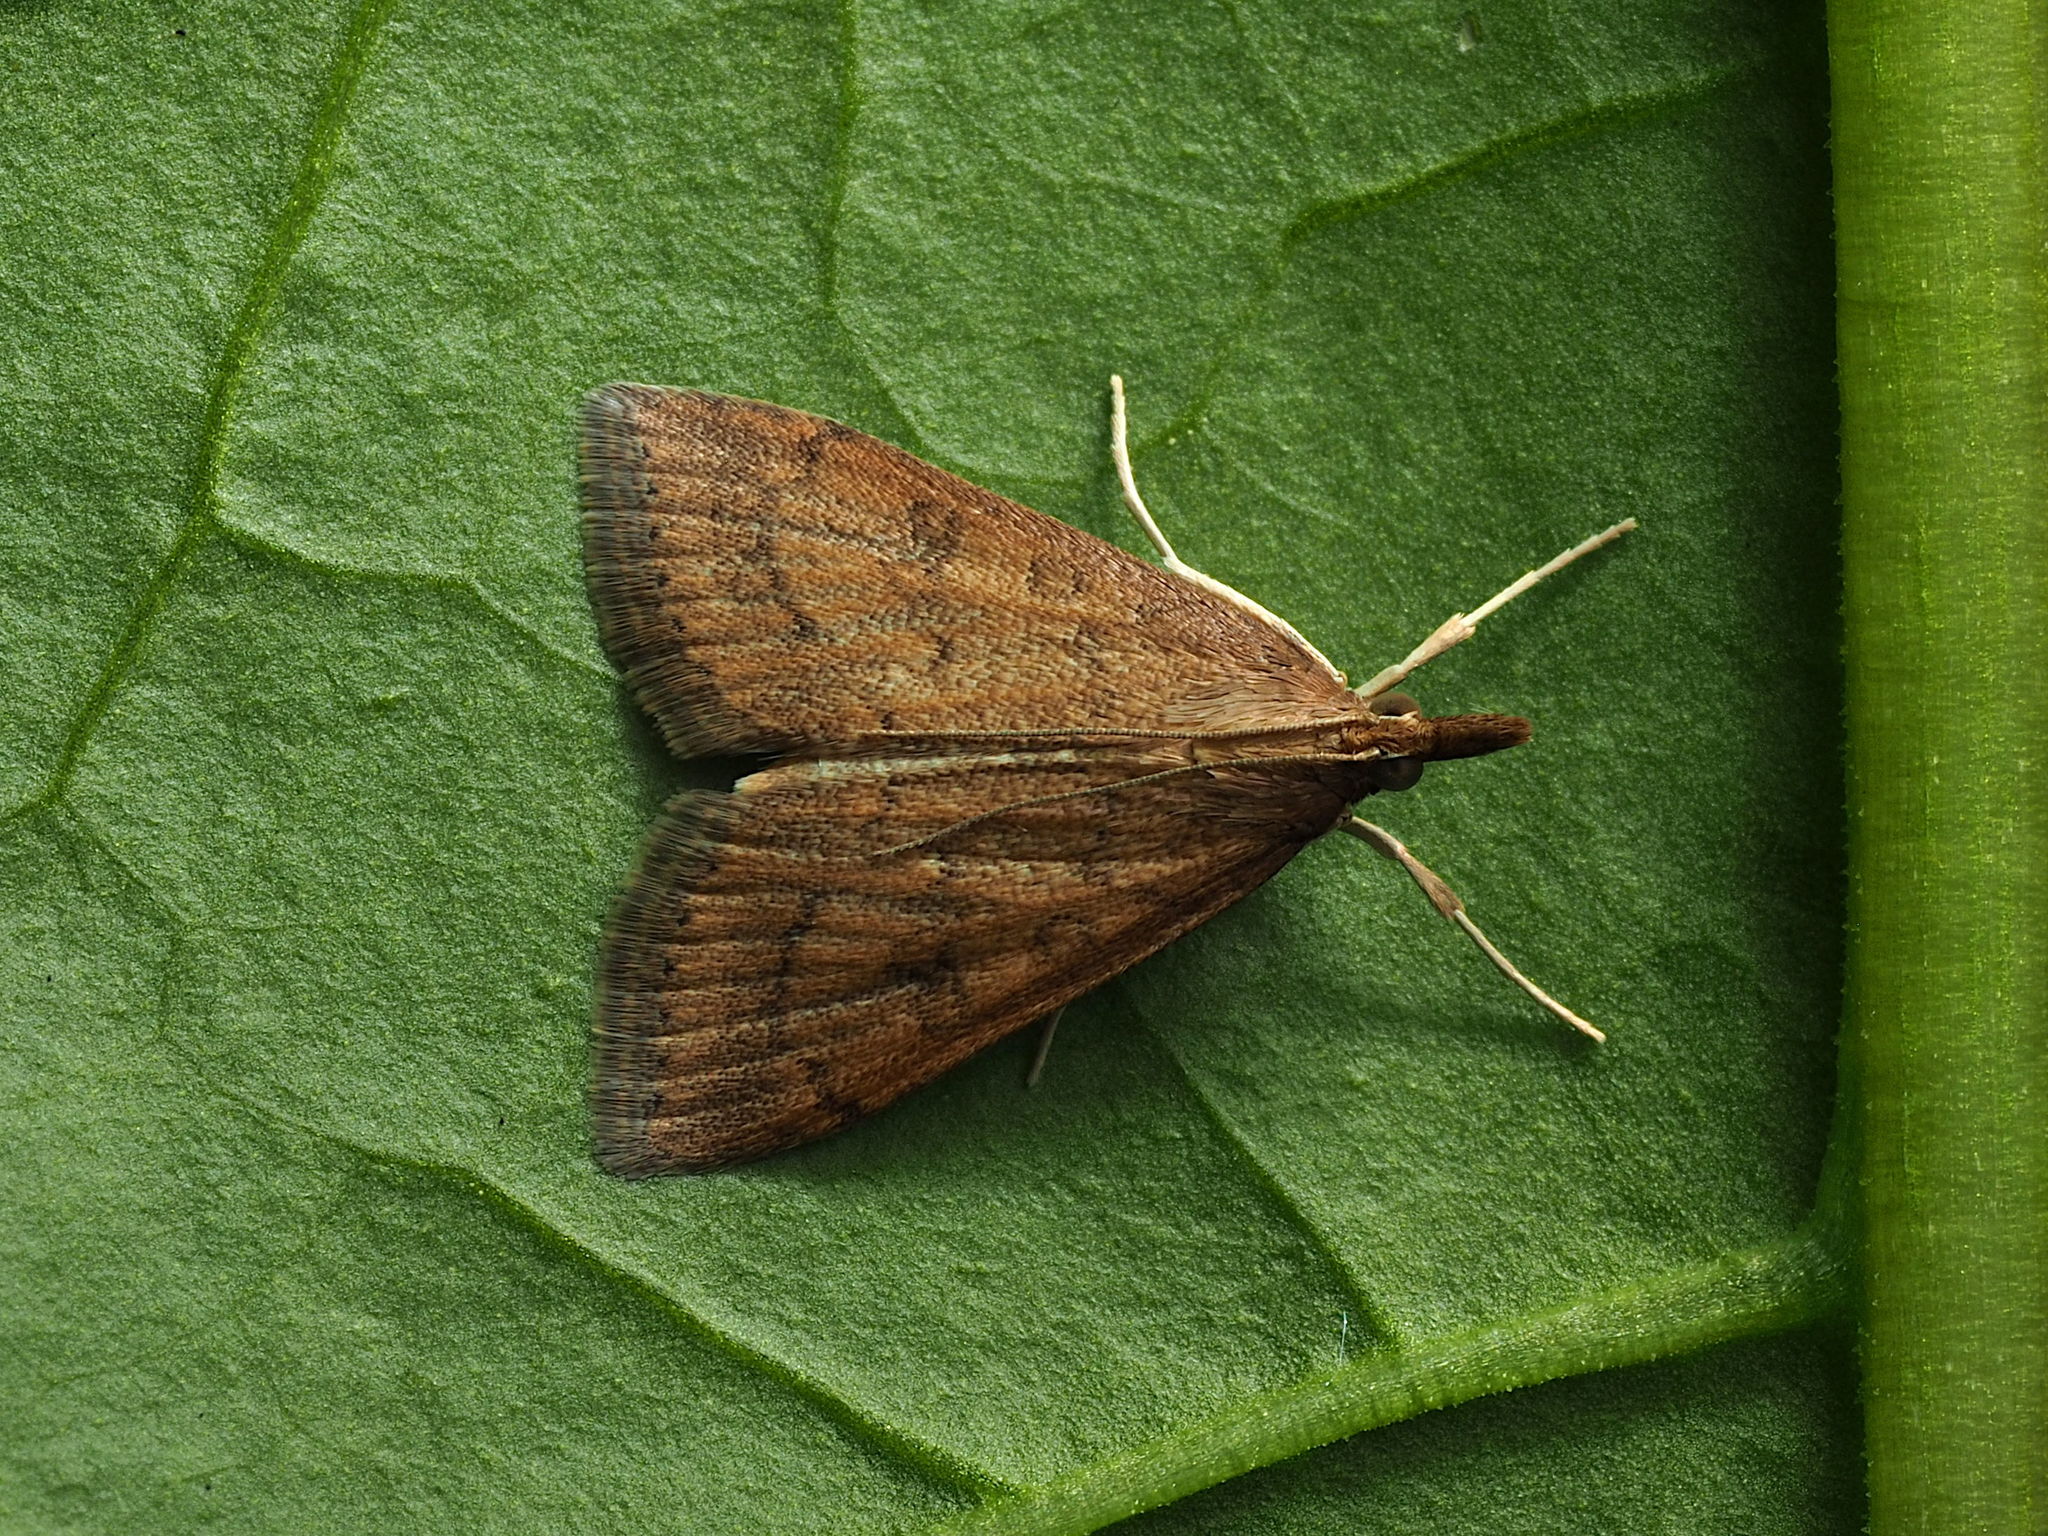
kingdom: Animalia
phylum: Arthropoda
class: Insecta
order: Lepidoptera
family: Crambidae
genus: Udea
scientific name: Udea rubigalis
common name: Celery leaftier moth
